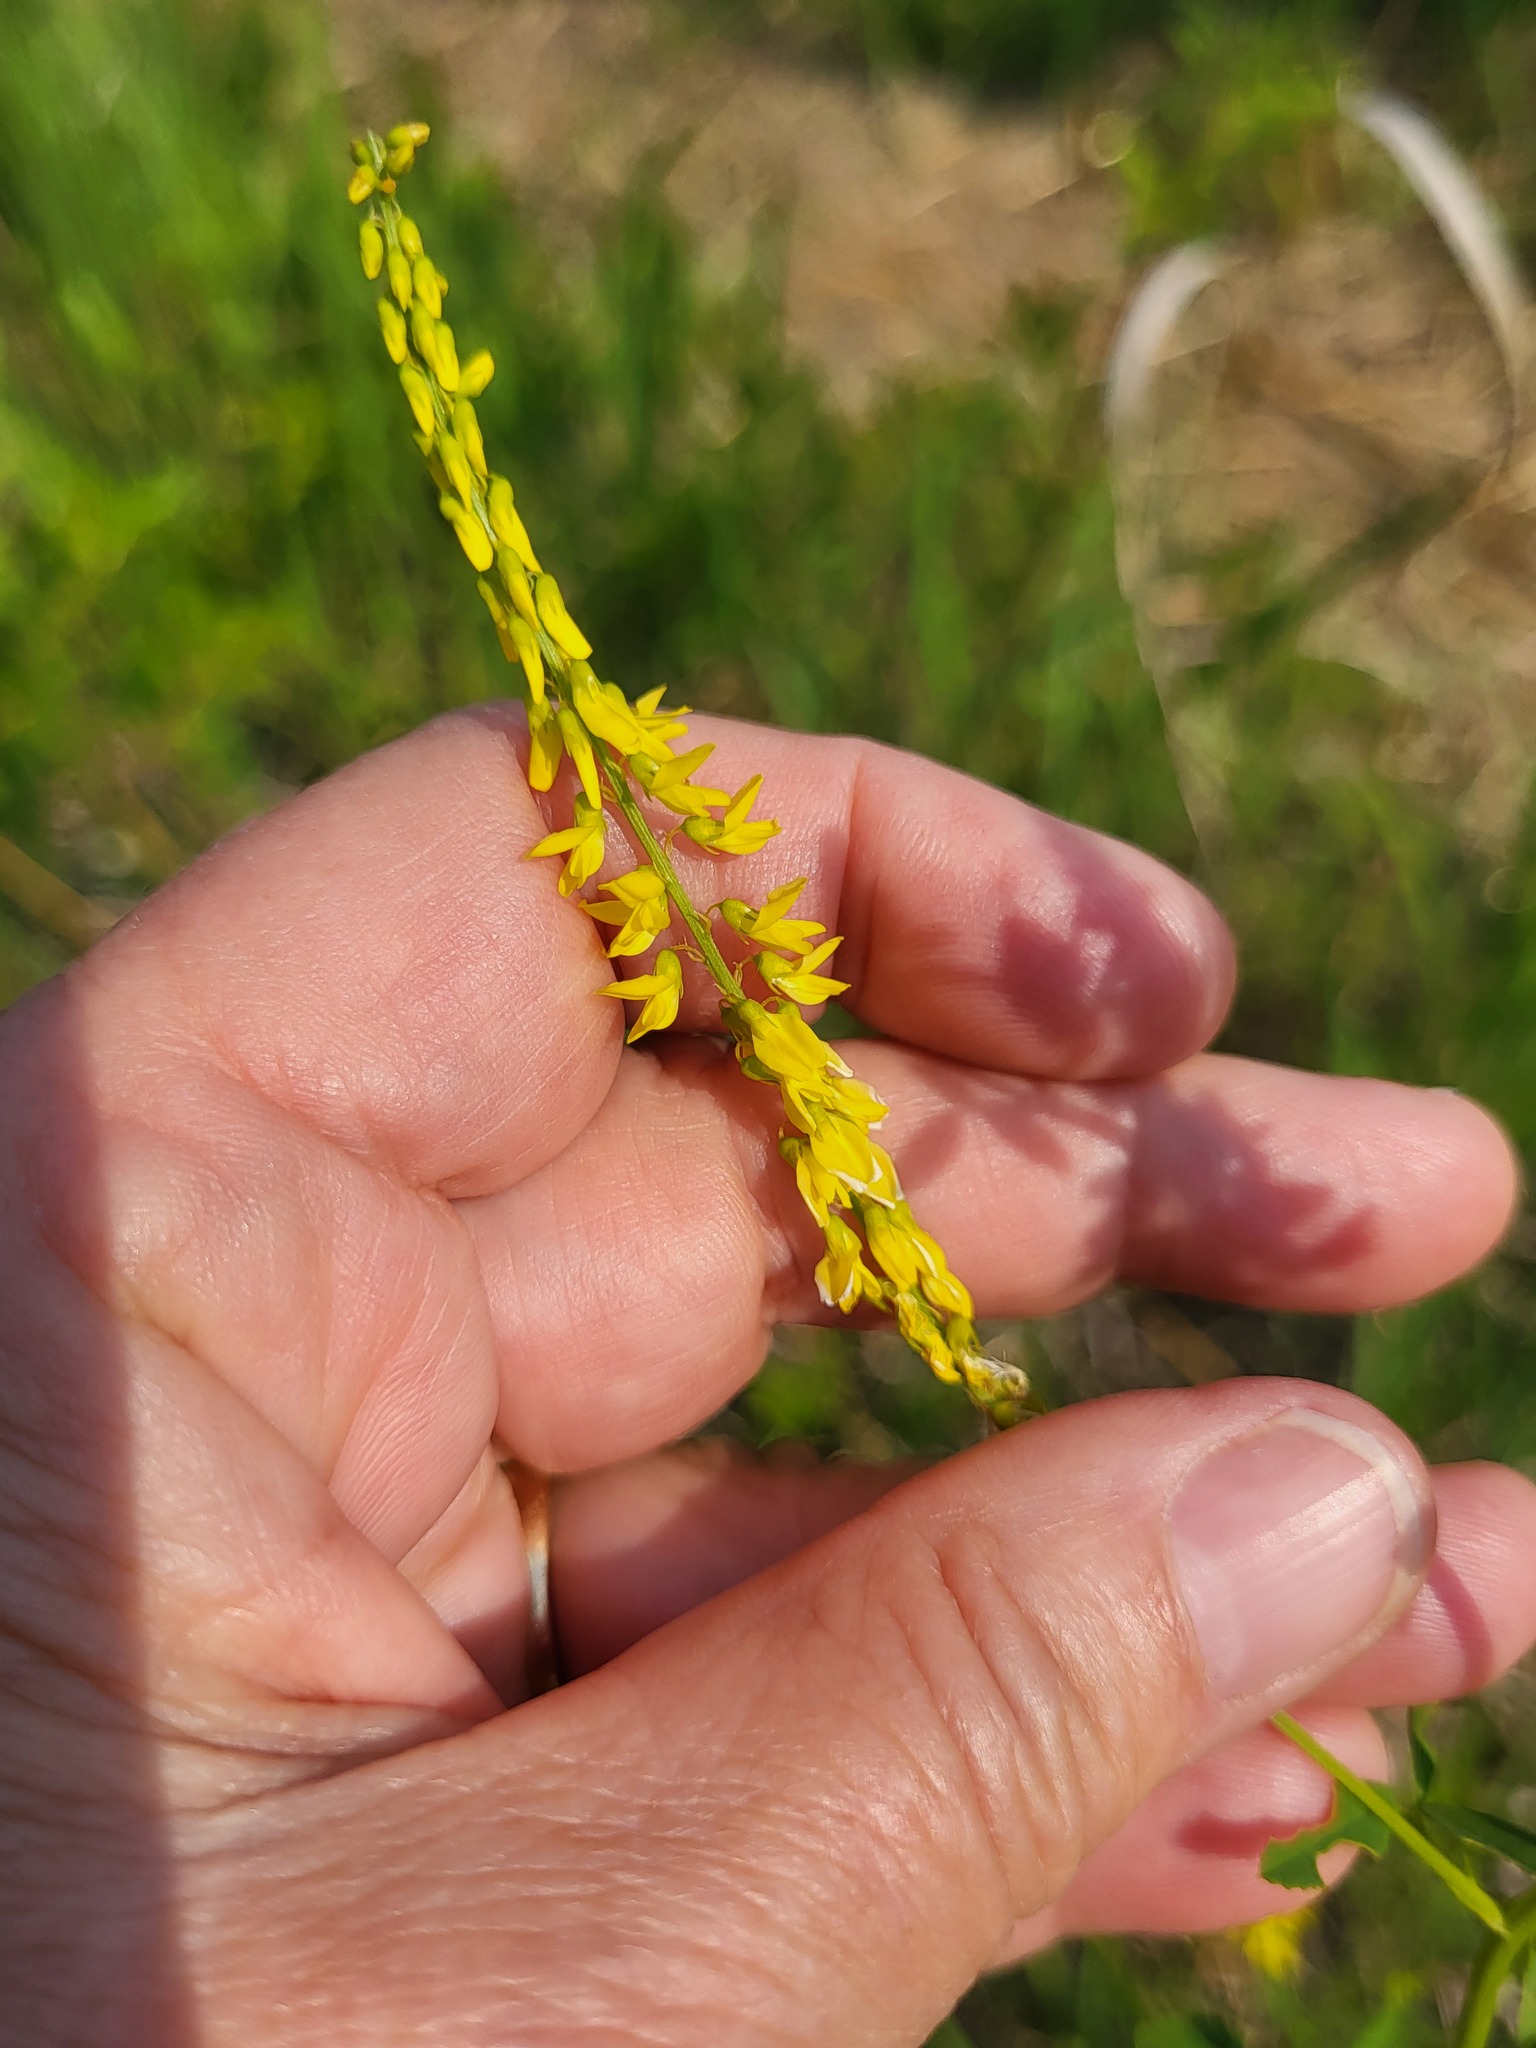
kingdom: Plantae
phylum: Tracheophyta
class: Magnoliopsida
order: Fabales
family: Fabaceae
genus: Melilotus
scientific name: Melilotus officinalis
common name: Sweetclover
